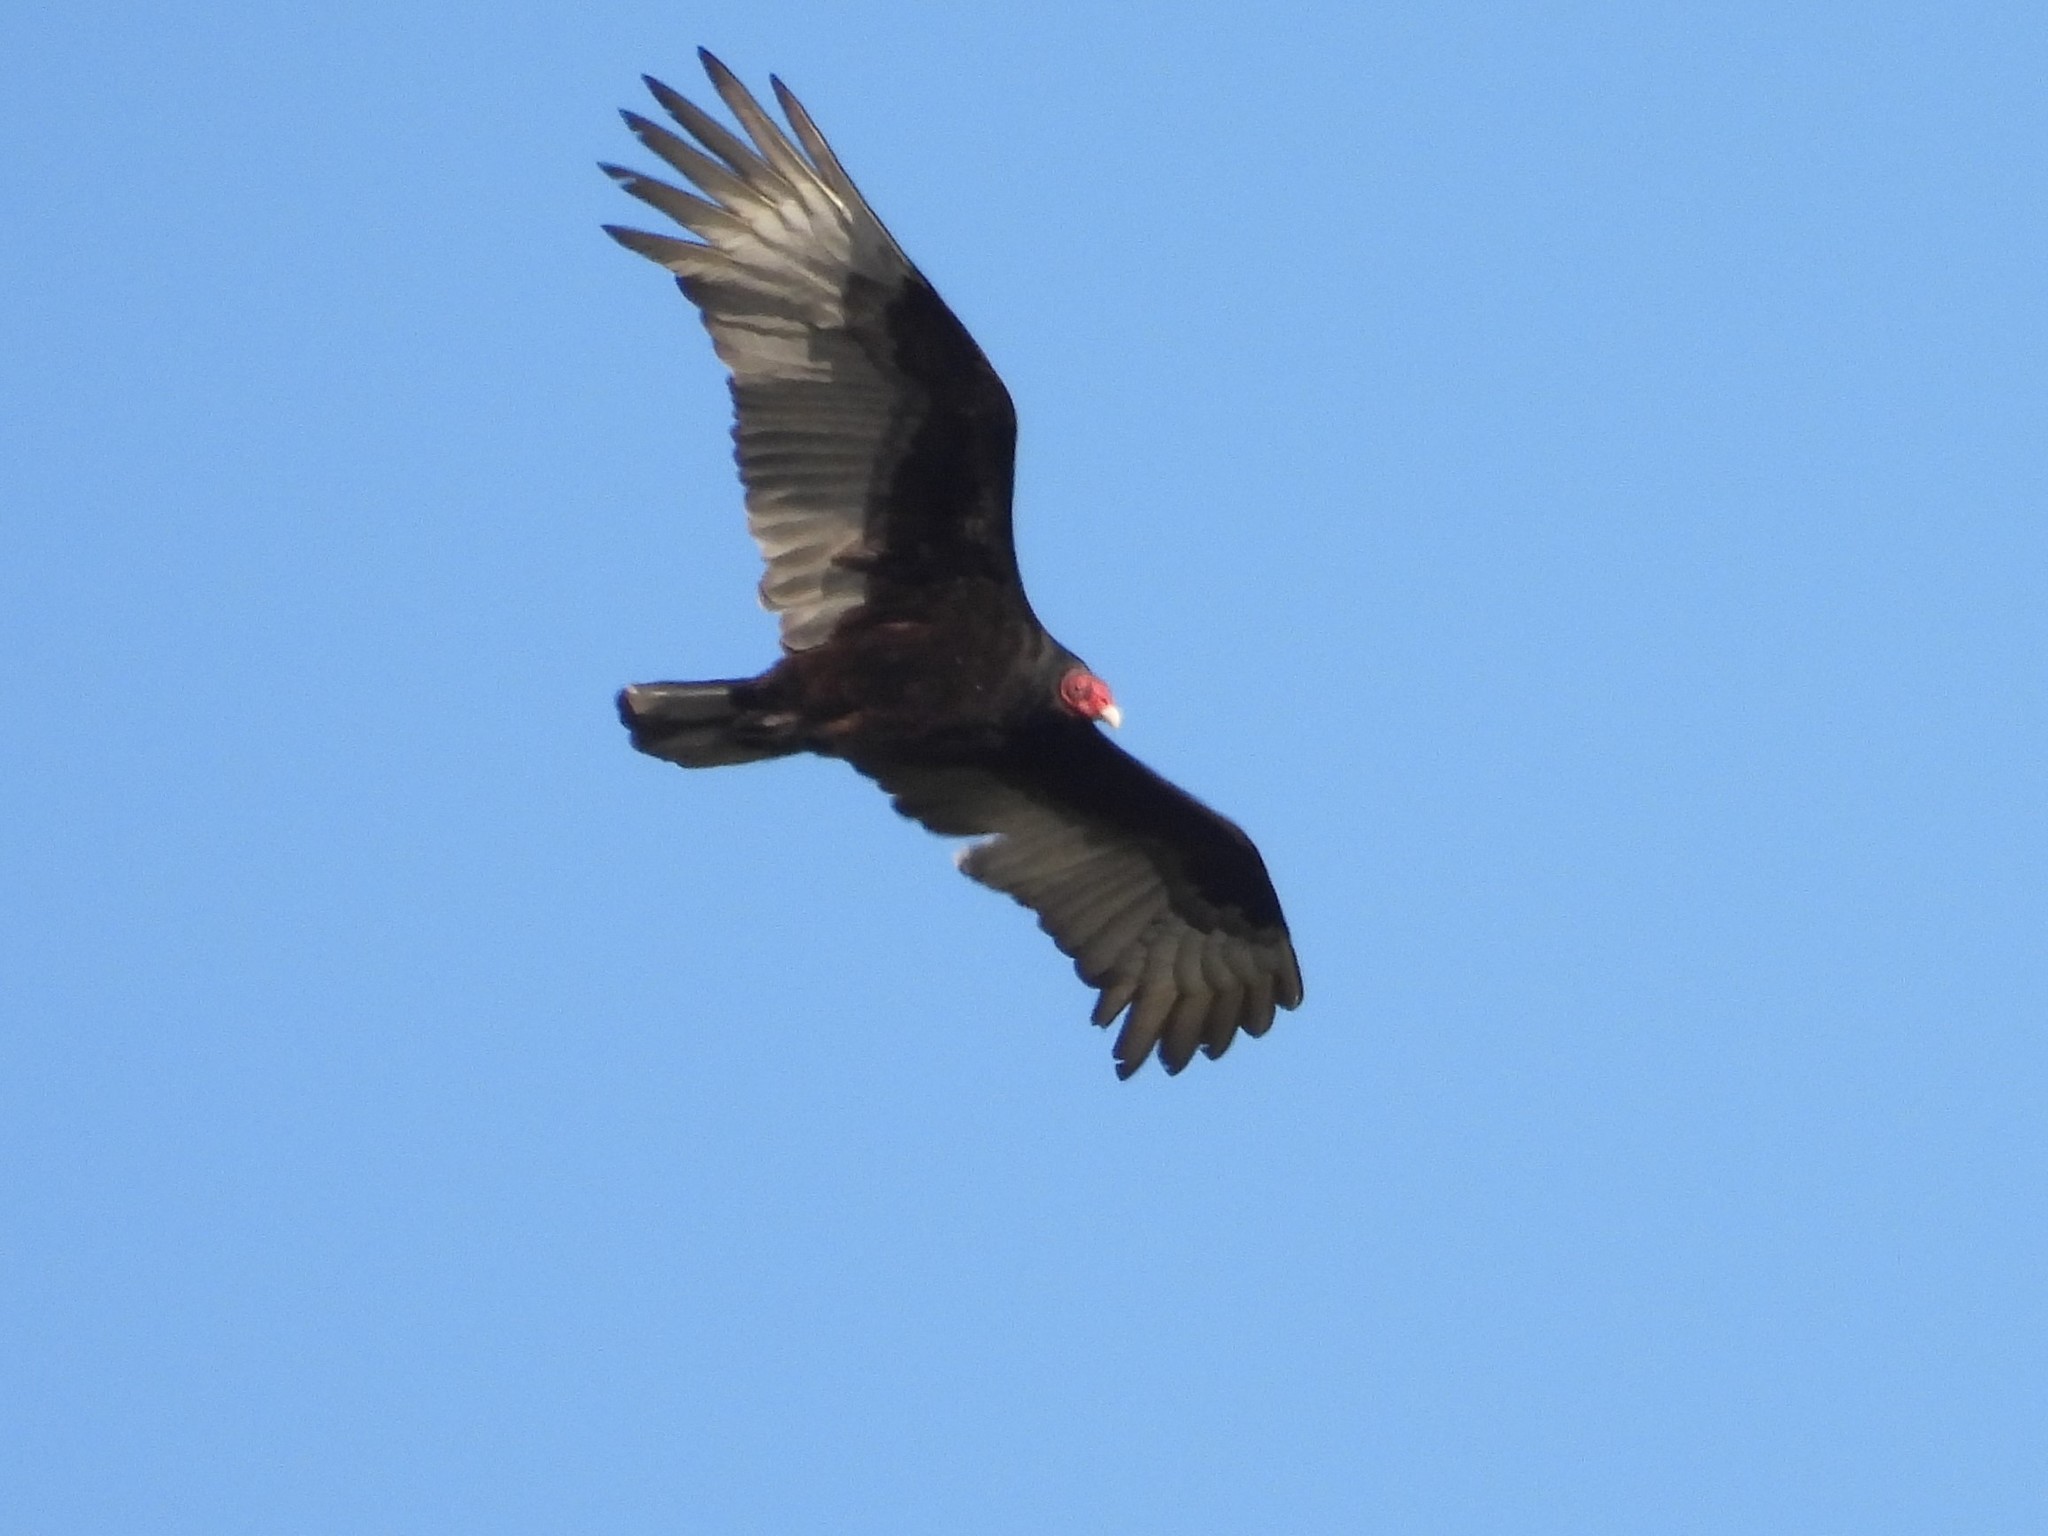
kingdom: Animalia
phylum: Chordata
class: Aves
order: Accipitriformes
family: Cathartidae
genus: Cathartes
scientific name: Cathartes aura
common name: Turkey vulture
